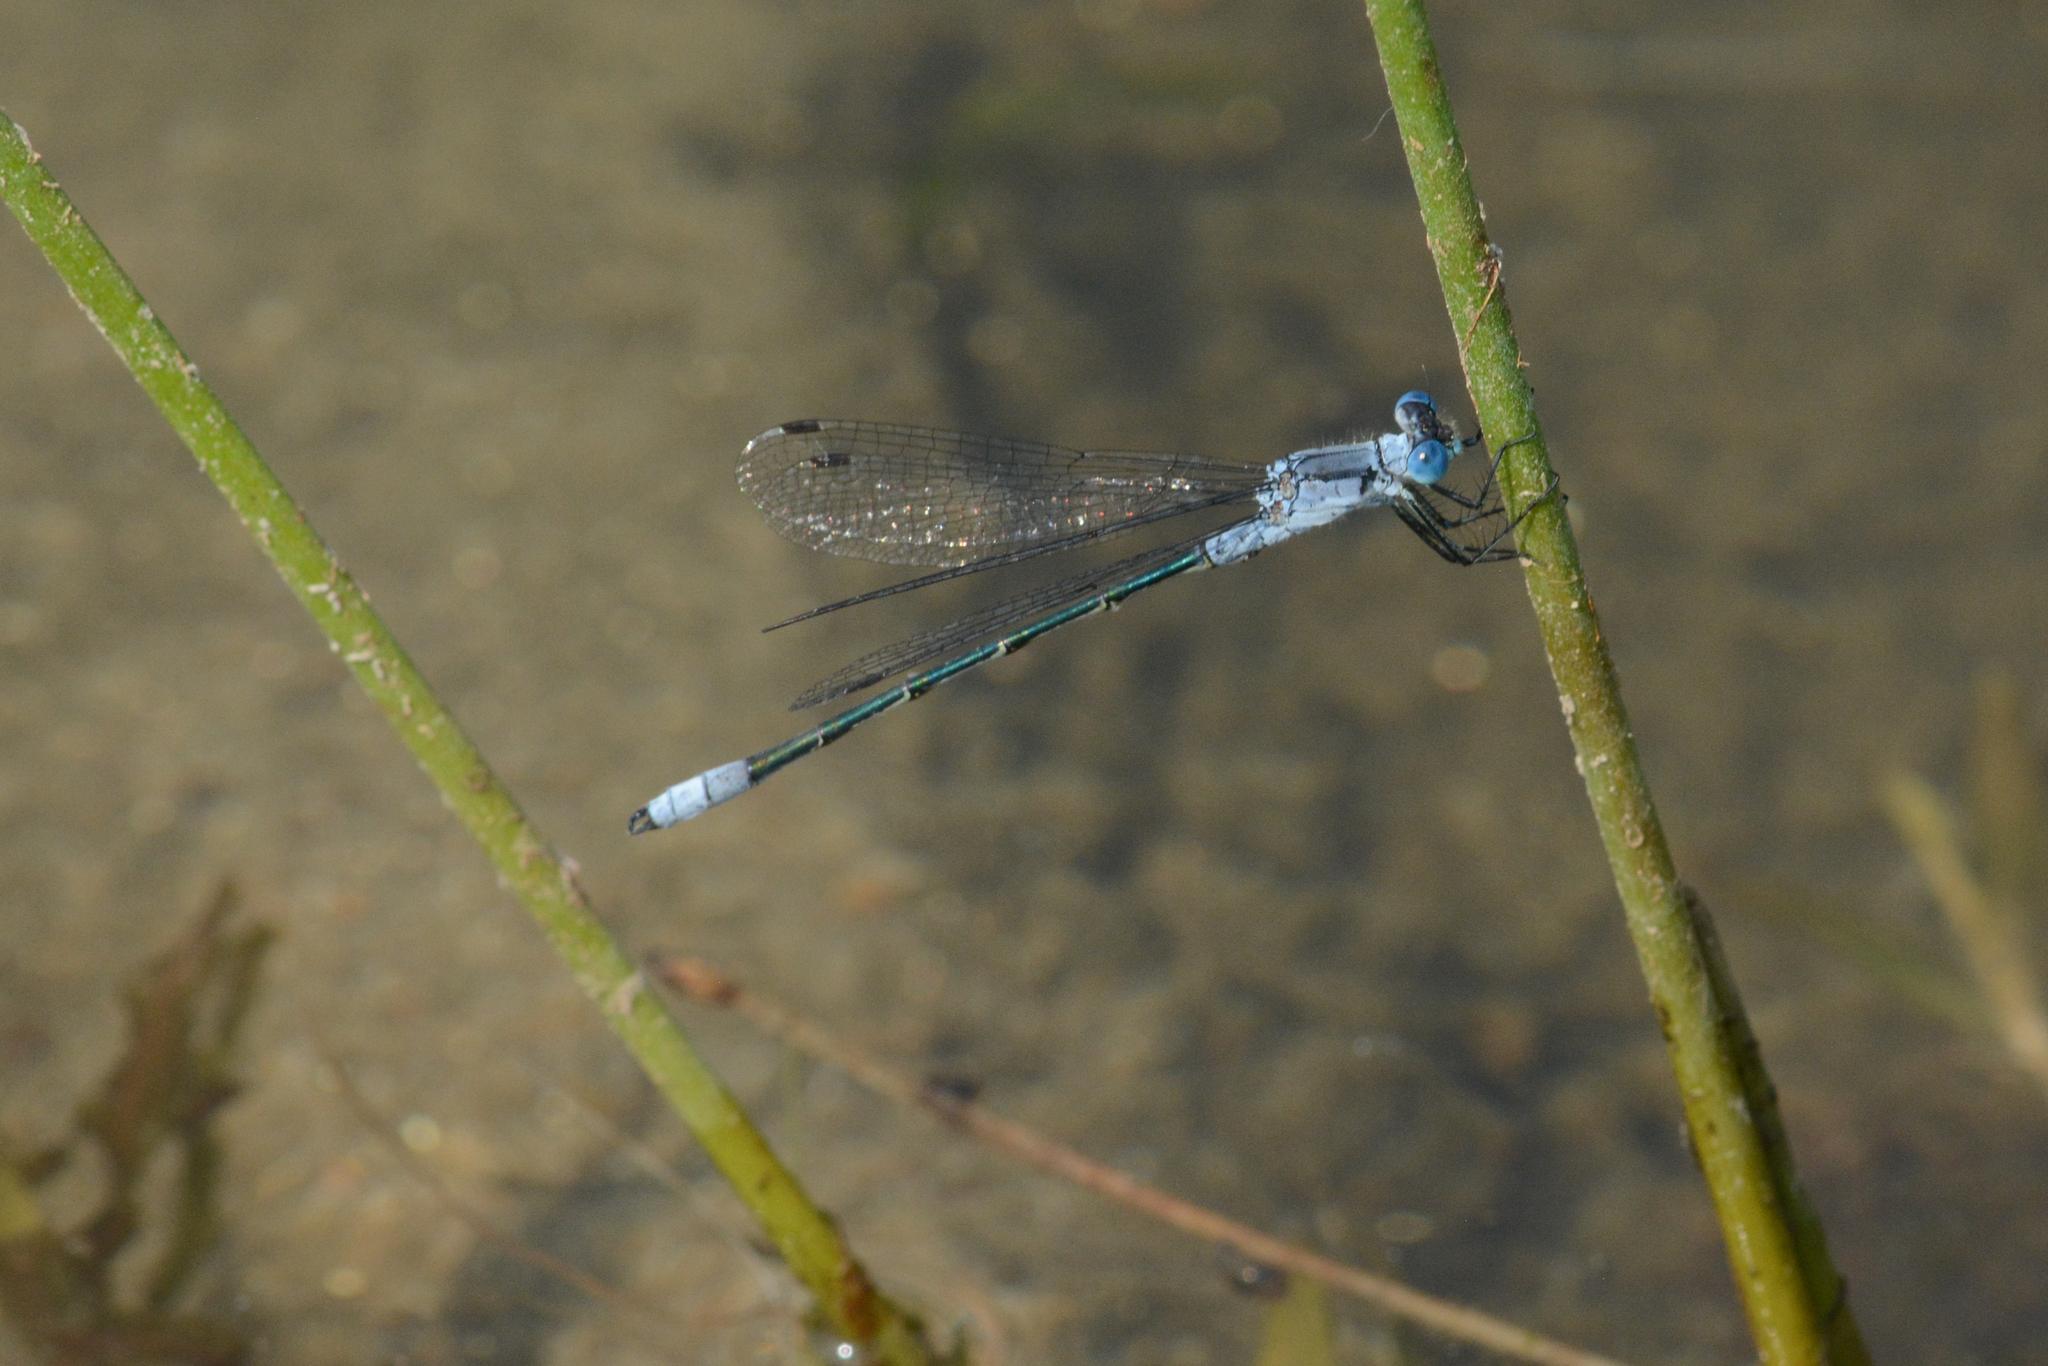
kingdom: Animalia
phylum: Arthropoda
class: Insecta
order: Odonata
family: Lestidae
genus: Lestes
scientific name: Lestes disjunctus
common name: Northern spreadwing
